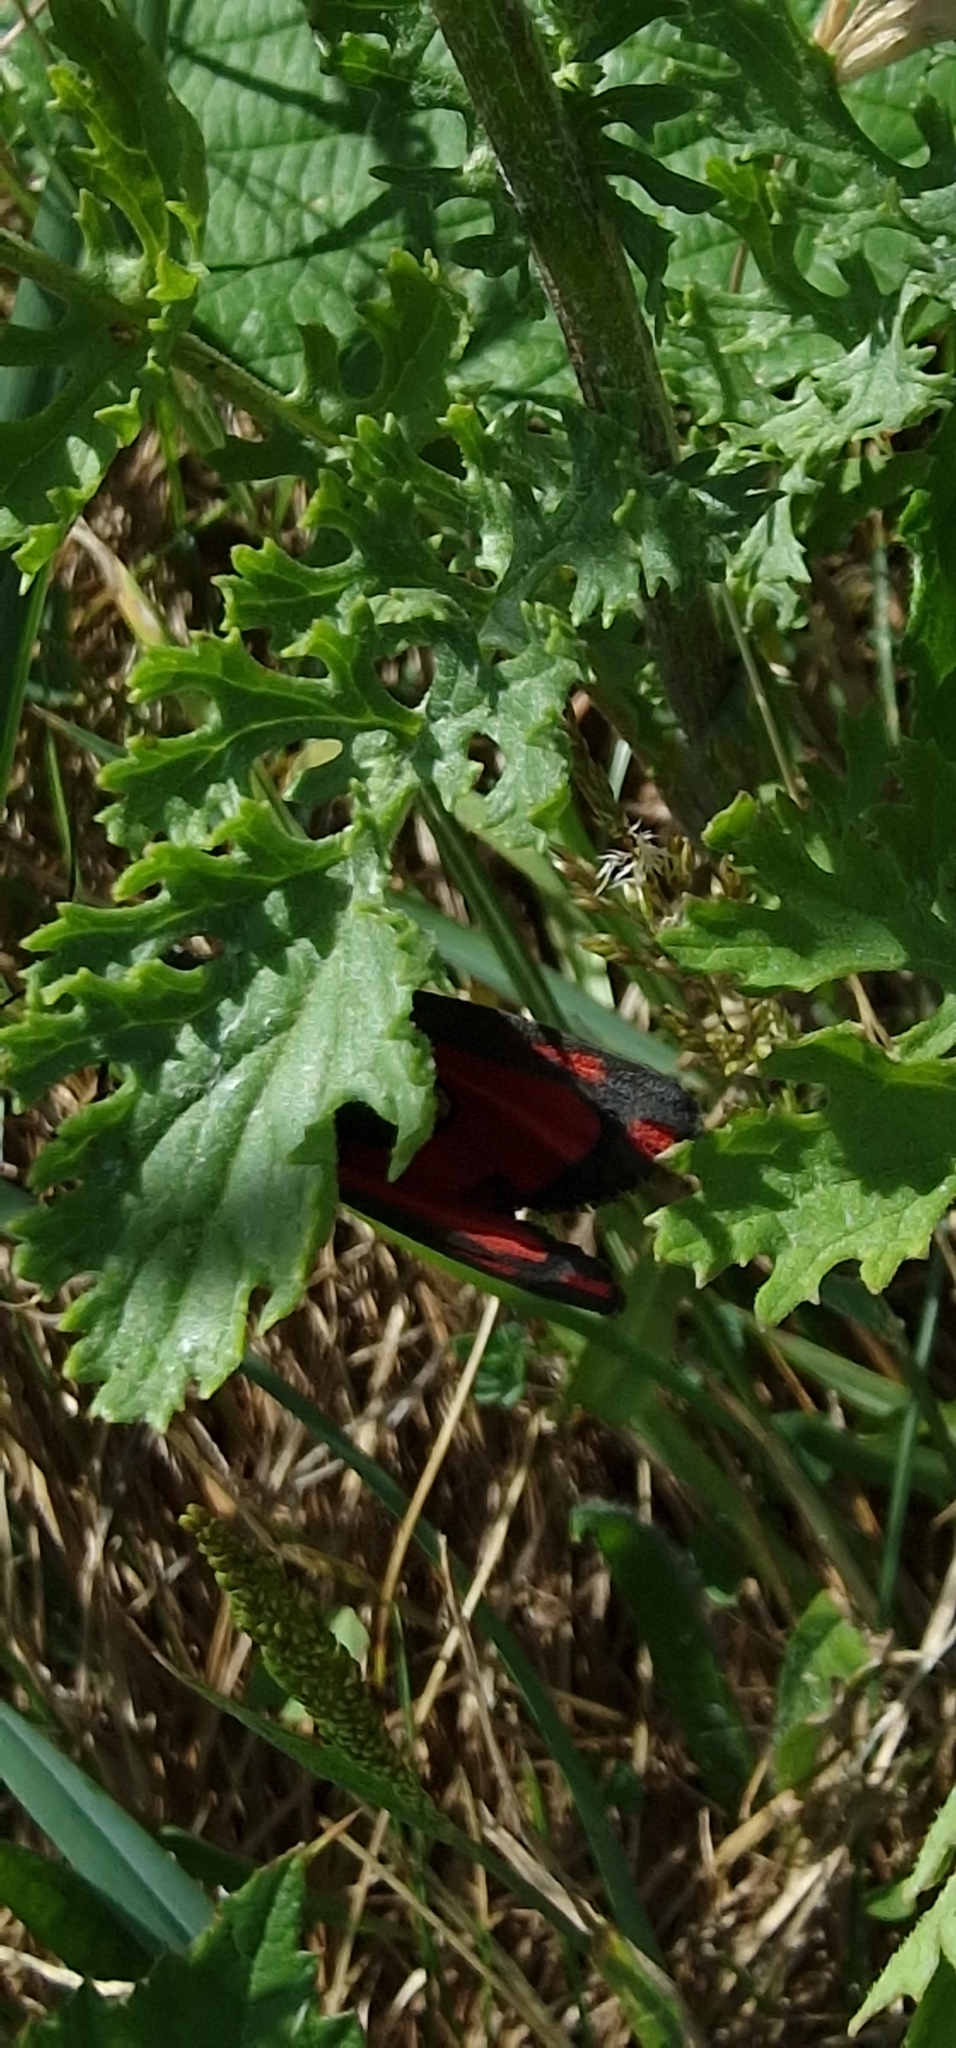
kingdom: Animalia
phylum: Arthropoda
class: Insecta
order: Lepidoptera
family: Erebidae
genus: Tyria
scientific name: Tyria jacobaeae
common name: Cinnabar
